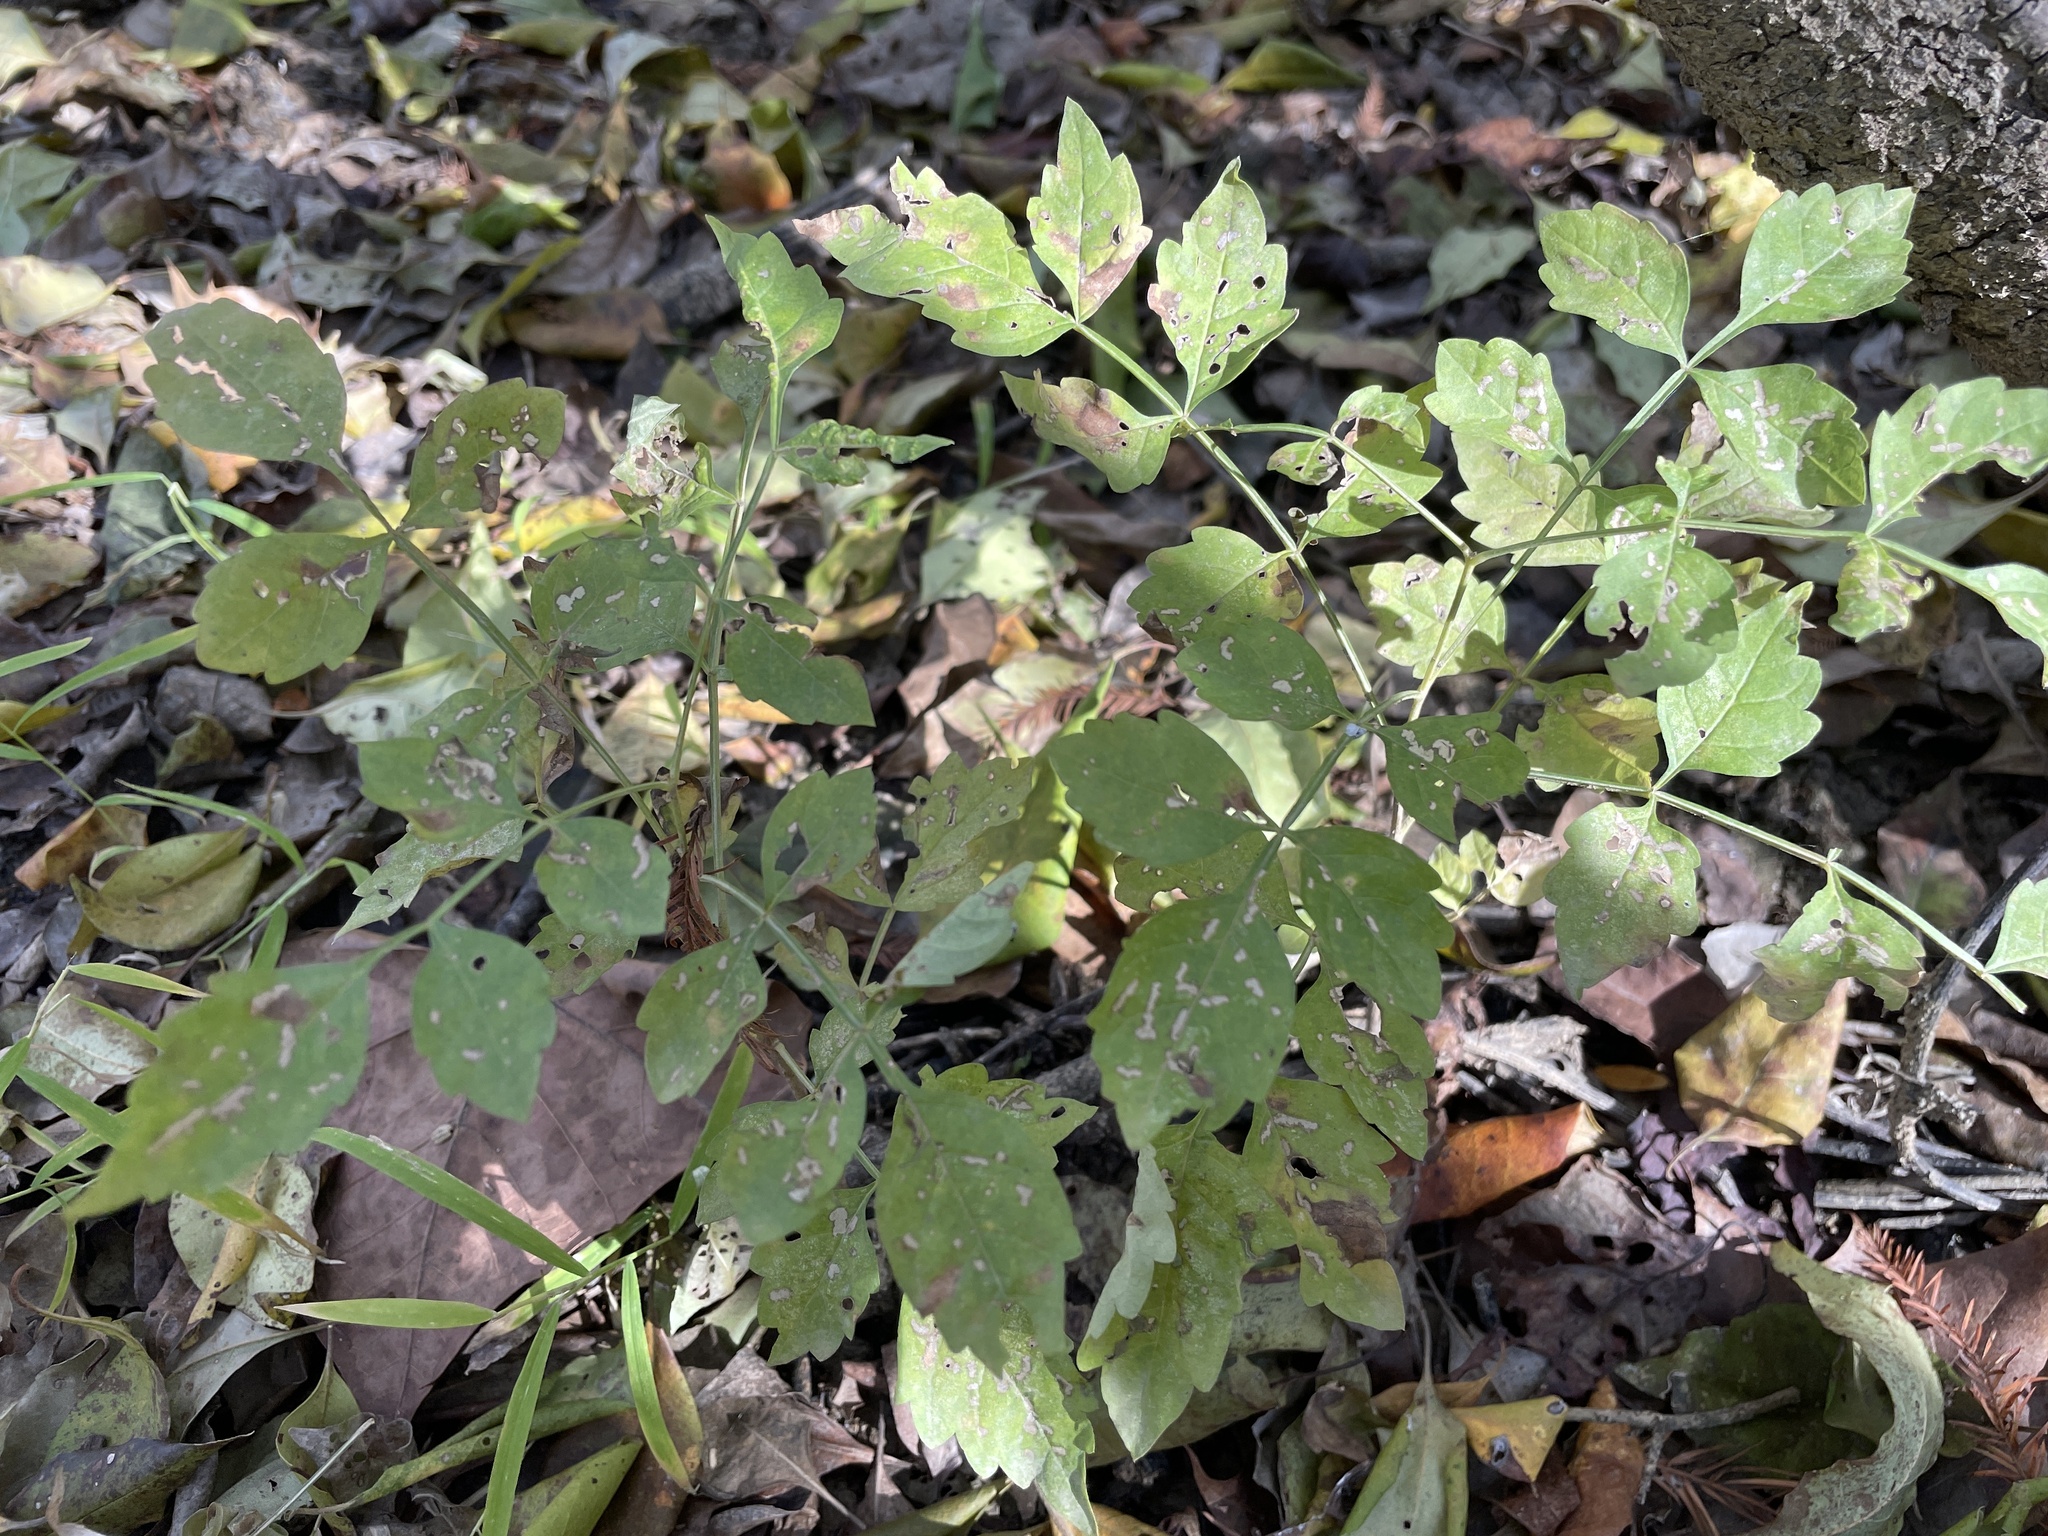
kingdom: Plantae
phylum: Tracheophyta
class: Magnoliopsida
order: Lamiales
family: Bignoniaceae
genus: Campsis
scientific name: Campsis radicans
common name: Trumpet-creeper
